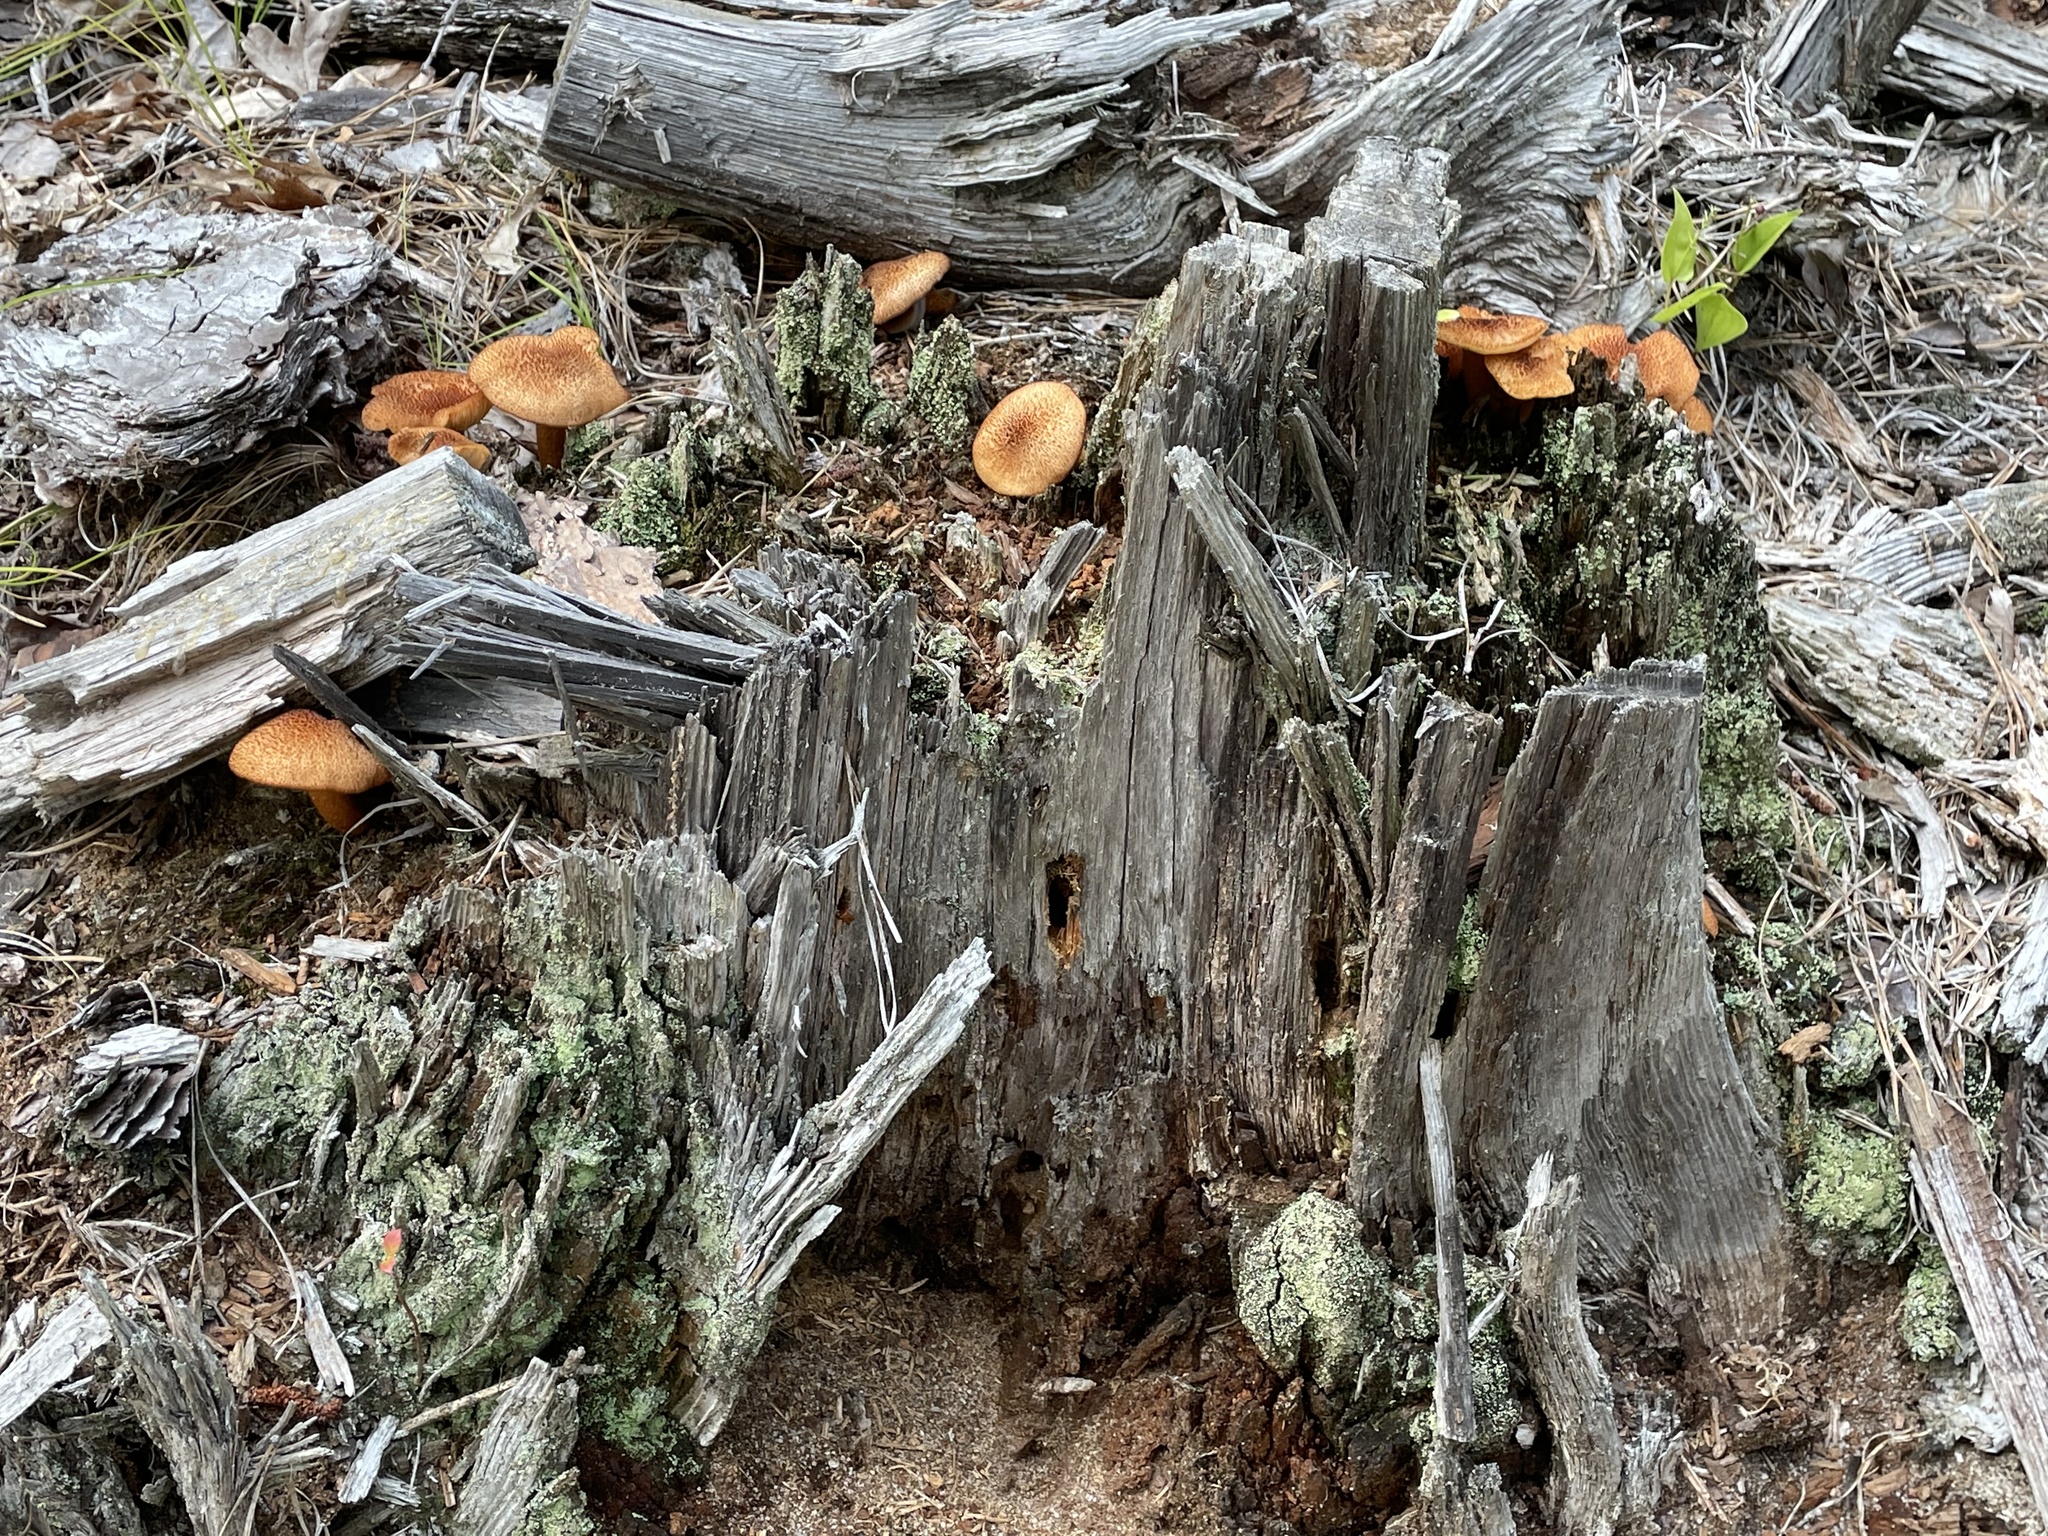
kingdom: Fungi
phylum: Basidiomycota
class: Agaricomycetes
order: Agaricales
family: Tricholomataceae
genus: Tricholomopsis
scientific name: Tricholomopsis formosa
